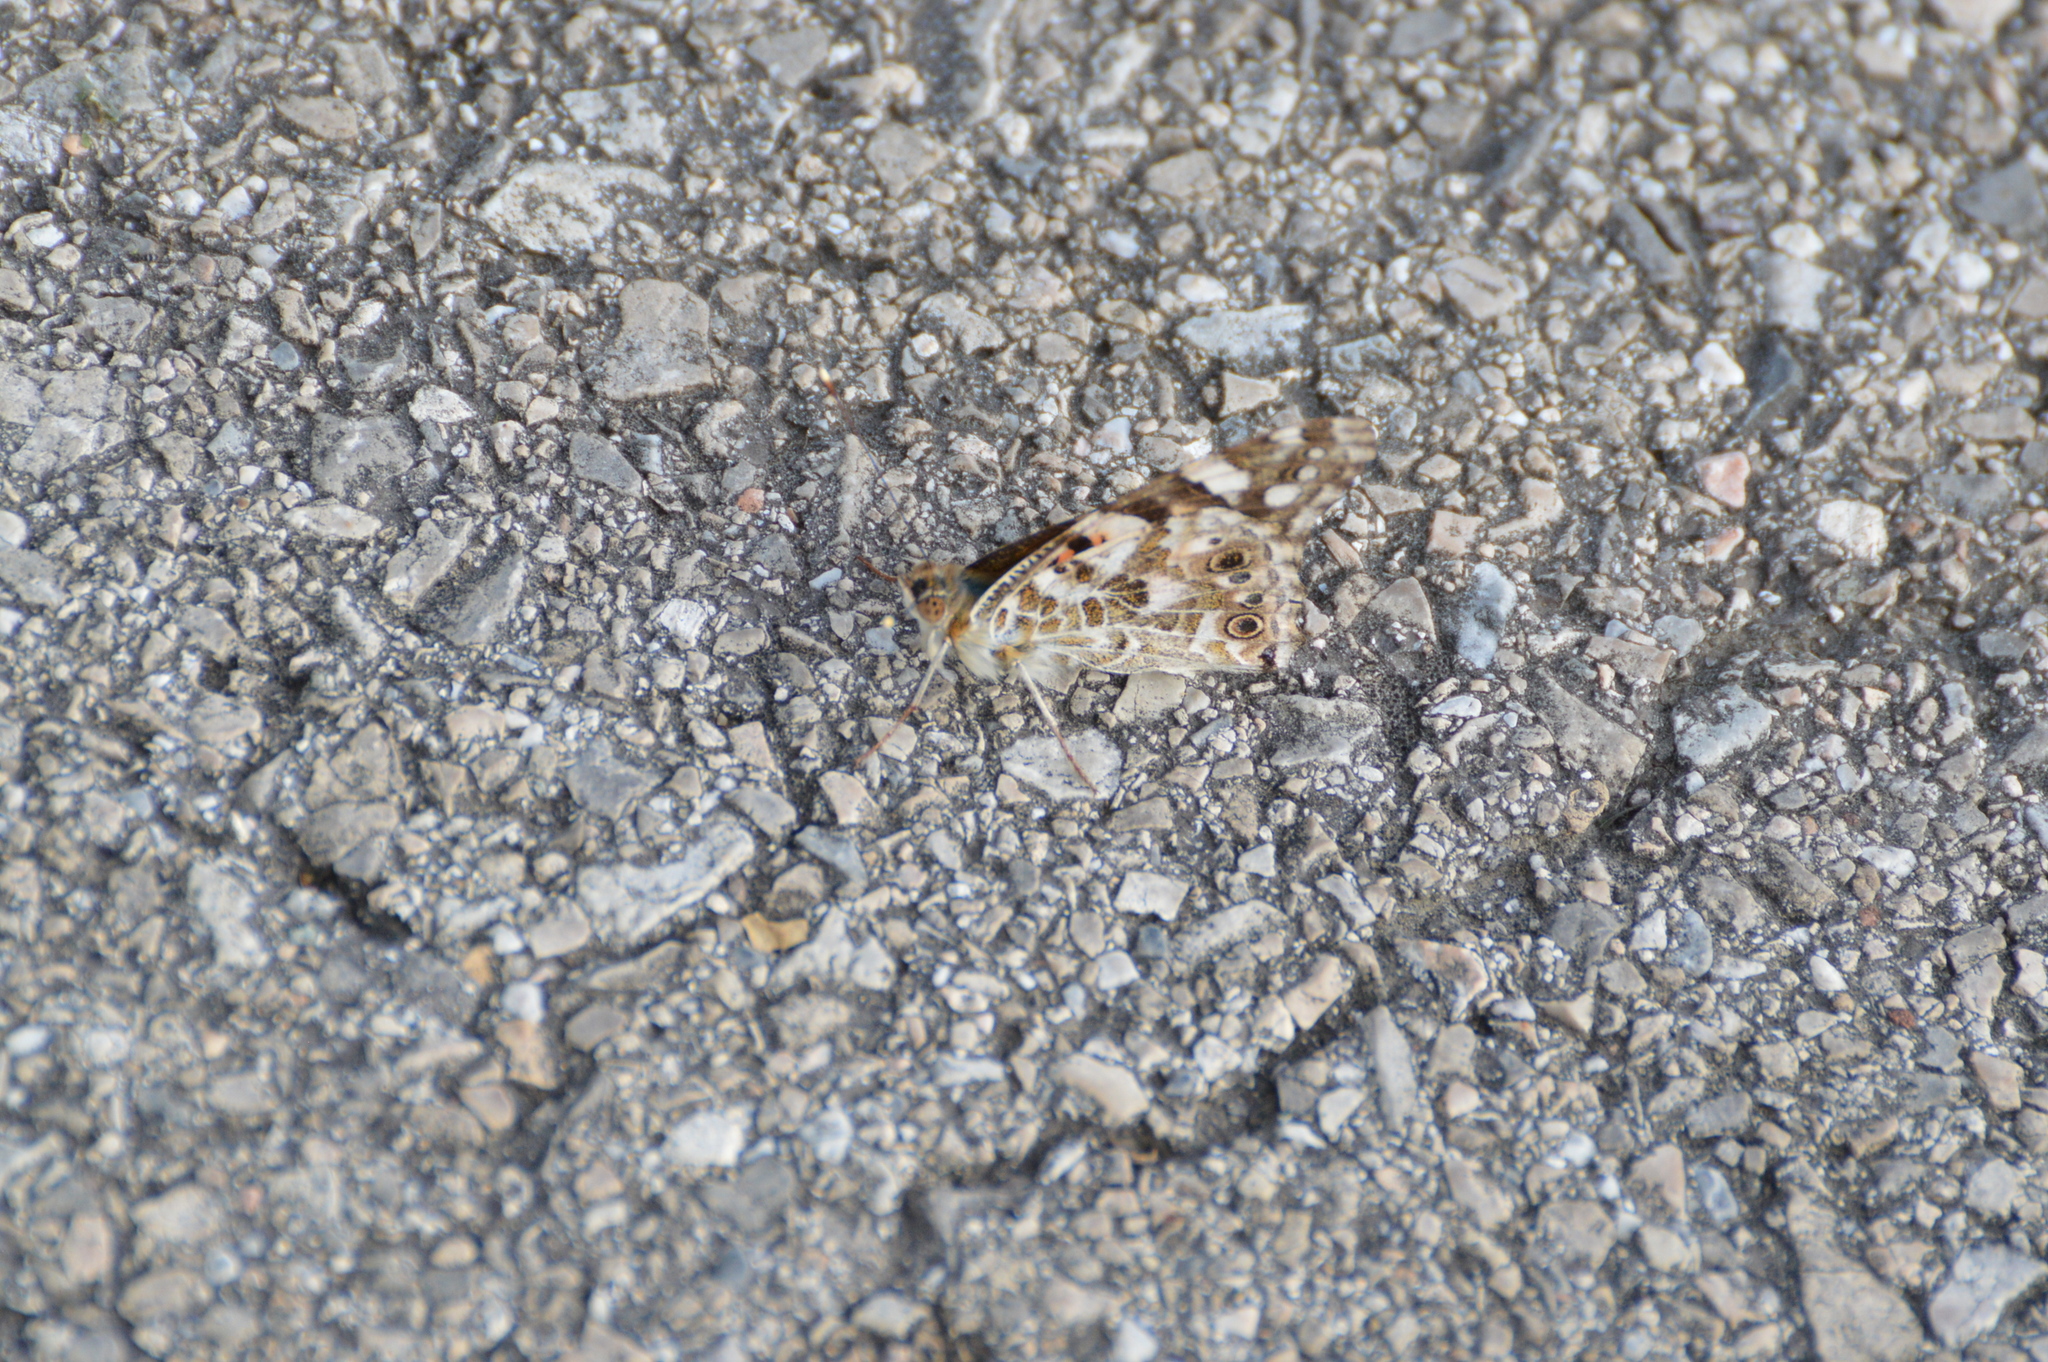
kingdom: Animalia
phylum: Arthropoda
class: Insecta
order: Lepidoptera
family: Nymphalidae
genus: Vanessa
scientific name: Vanessa cardui
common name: Painted lady
